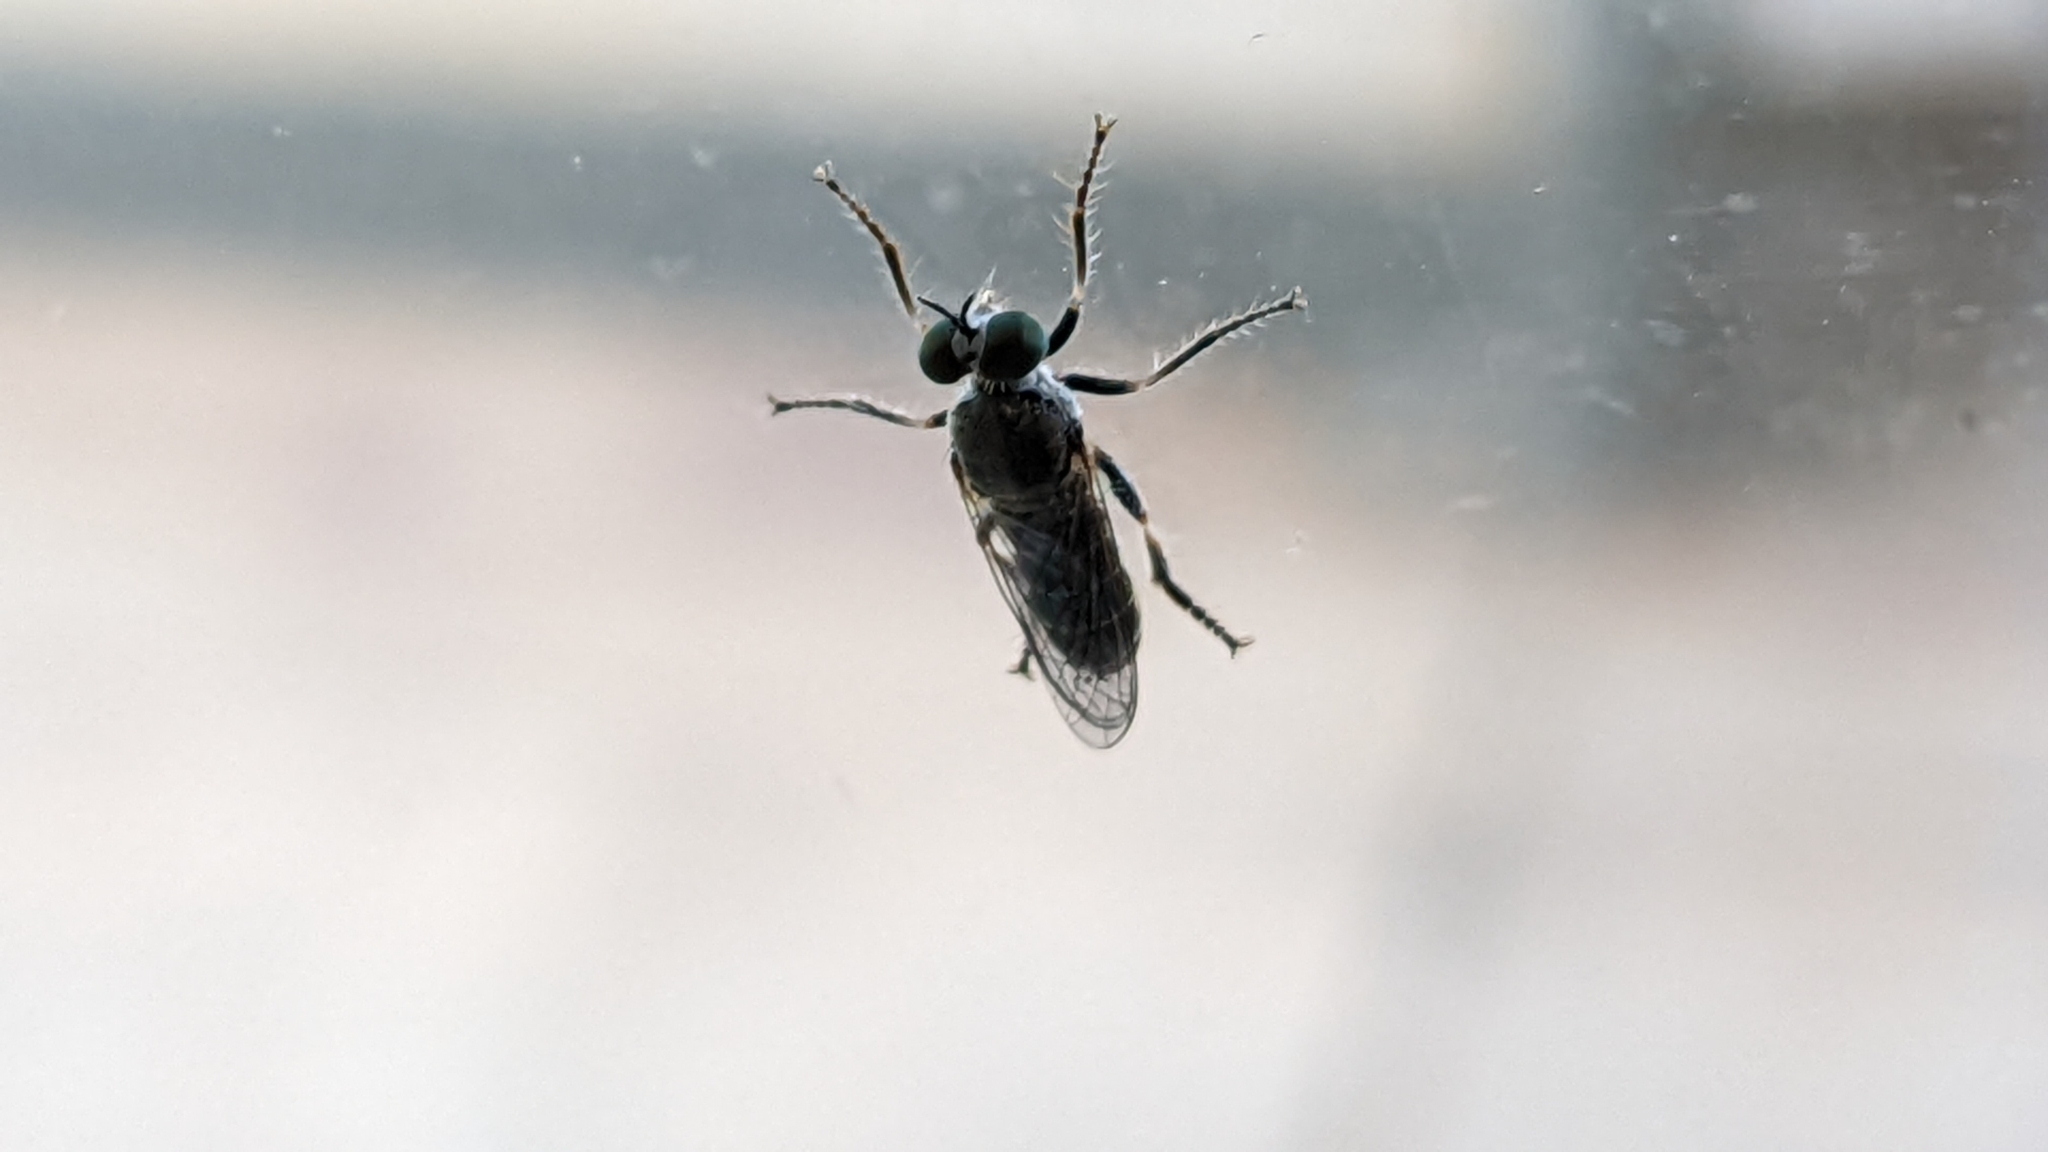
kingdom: Animalia
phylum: Arthropoda
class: Insecta
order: Diptera
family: Asilidae
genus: Atomosia
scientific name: Atomosia puella
